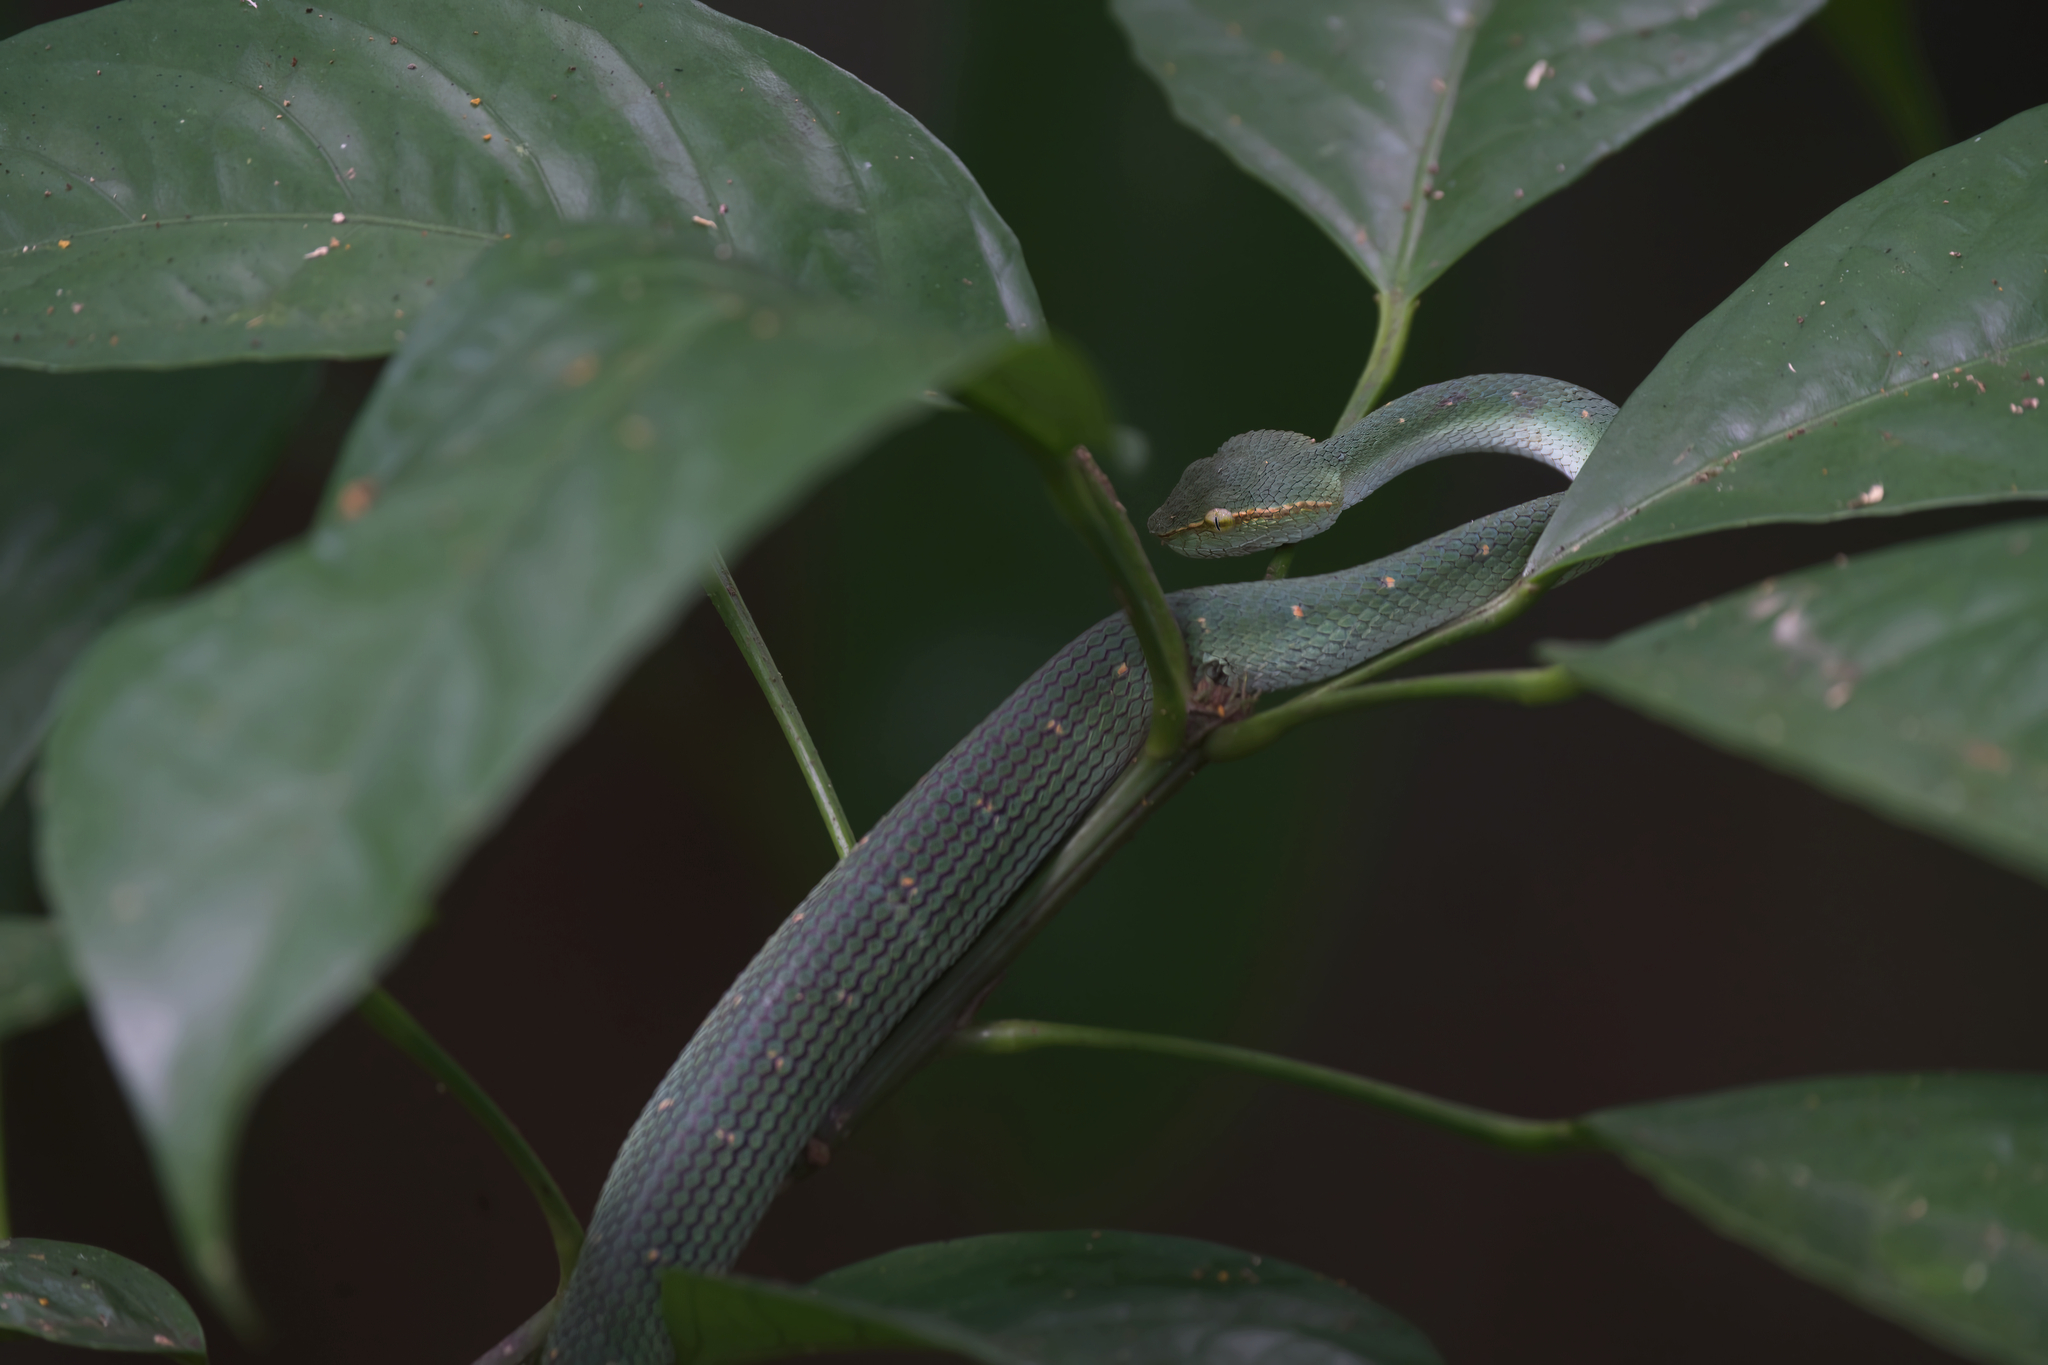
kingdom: Animalia
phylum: Chordata
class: Squamata
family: Viperidae
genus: Tropidolaemus
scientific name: Tropidolaemus subannulatus
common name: North philippine temple pitviper
